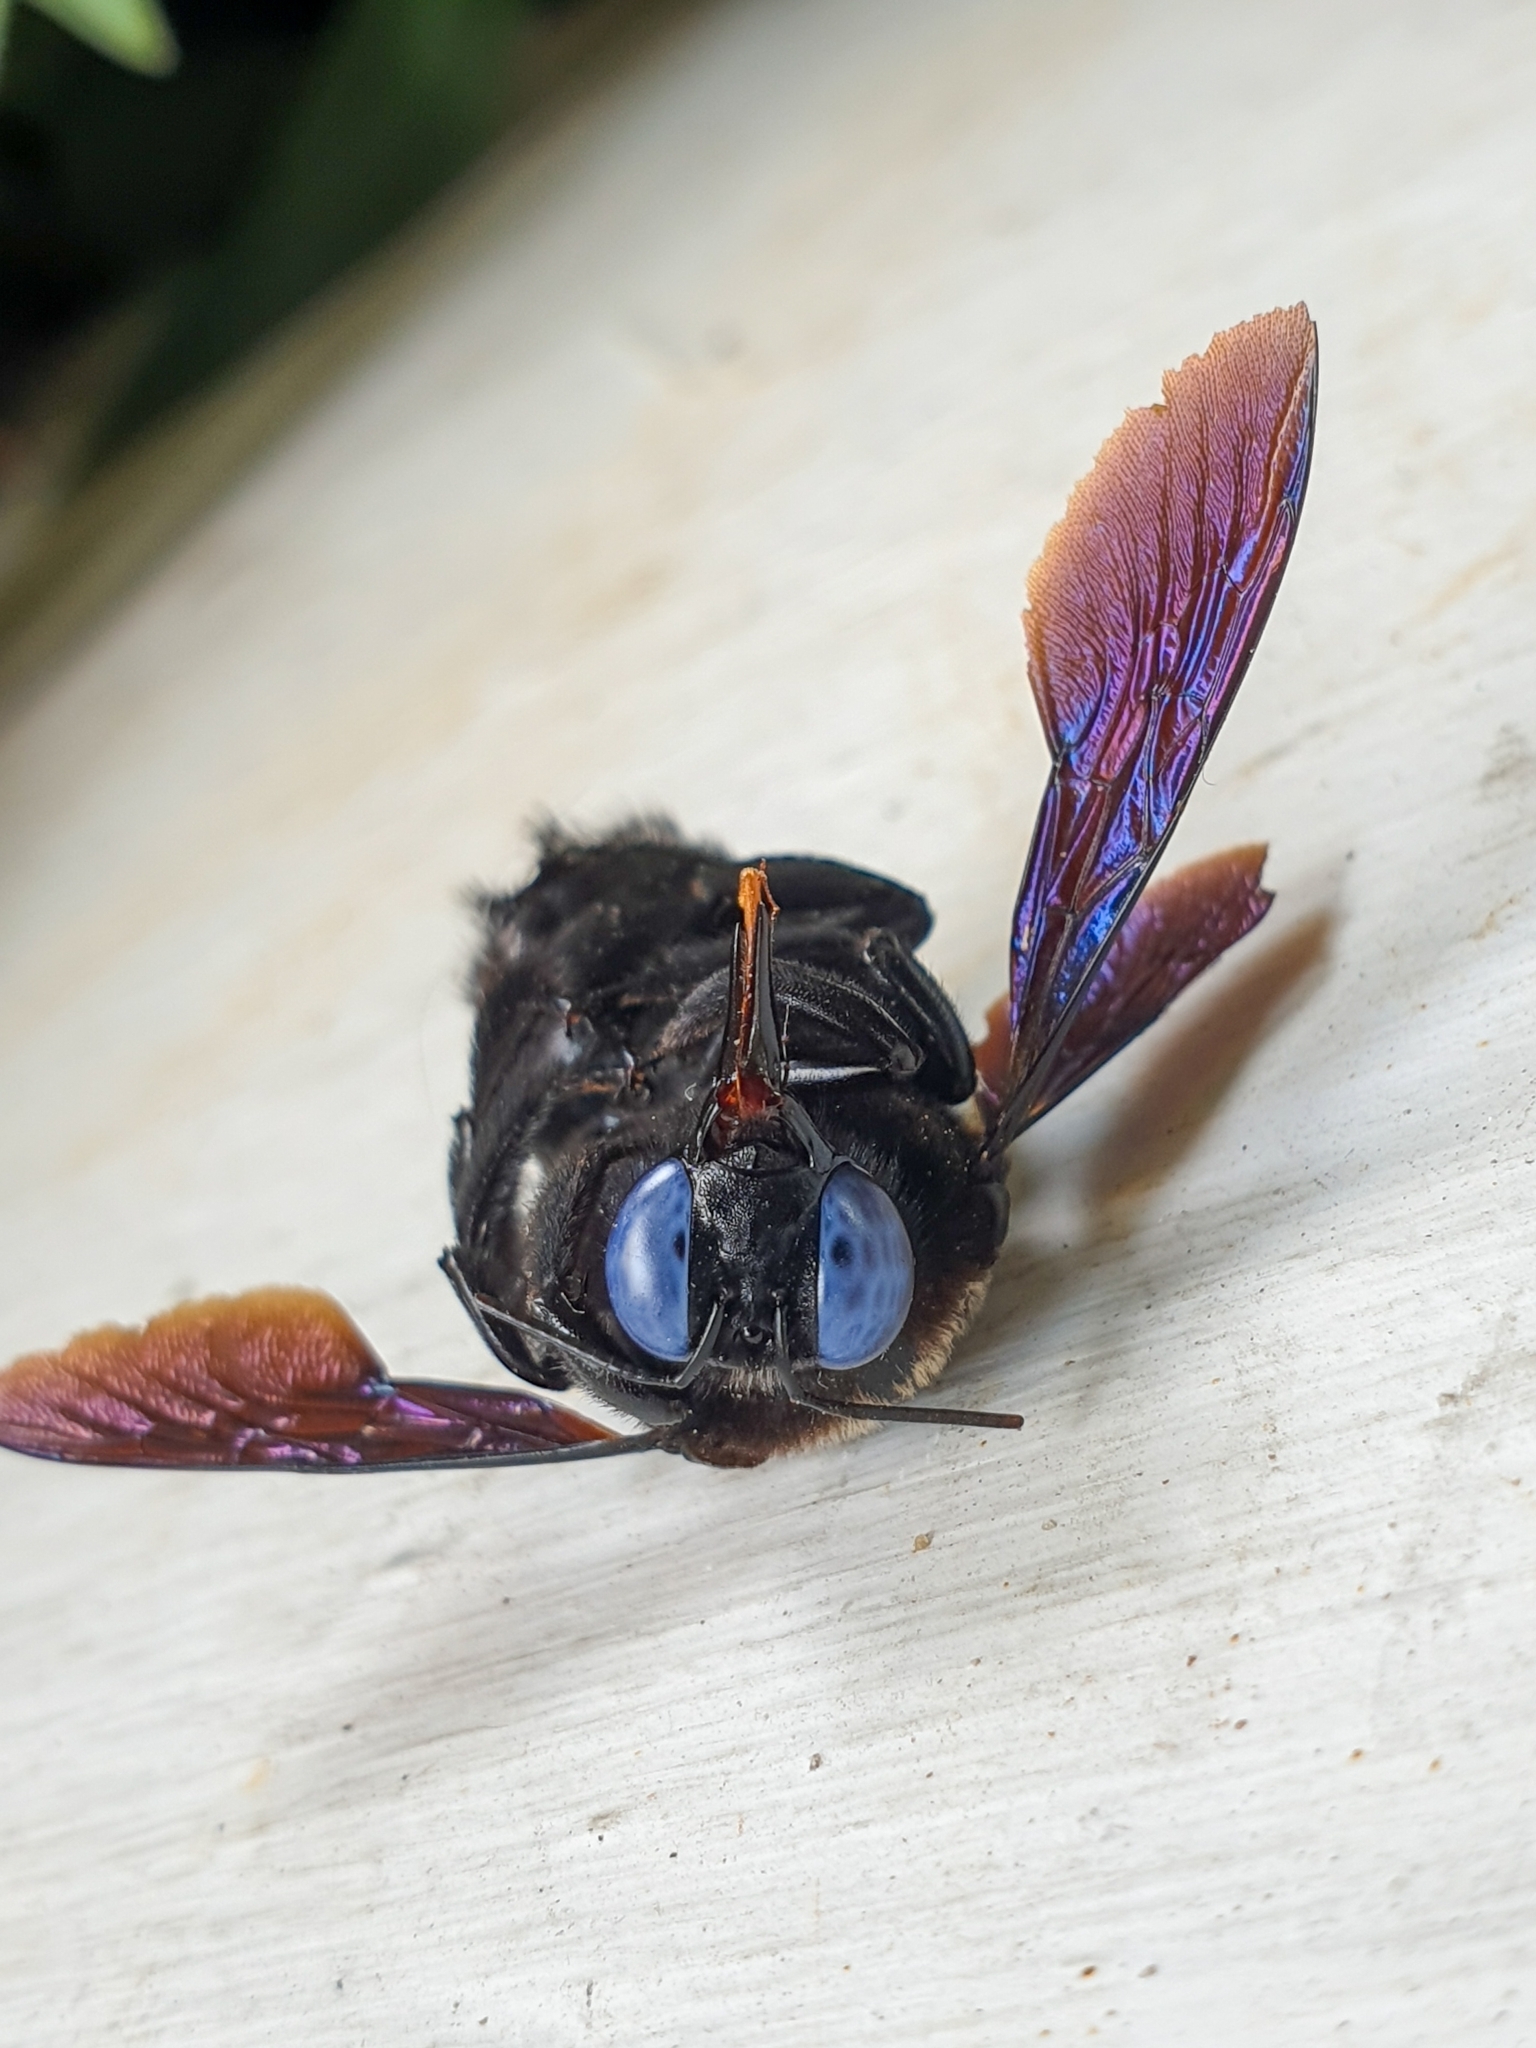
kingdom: Animalia
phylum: Arthropoda
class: Insecta
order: Hymenoptera
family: Apidae
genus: Xylocopa
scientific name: Xylocopa fenestrata
